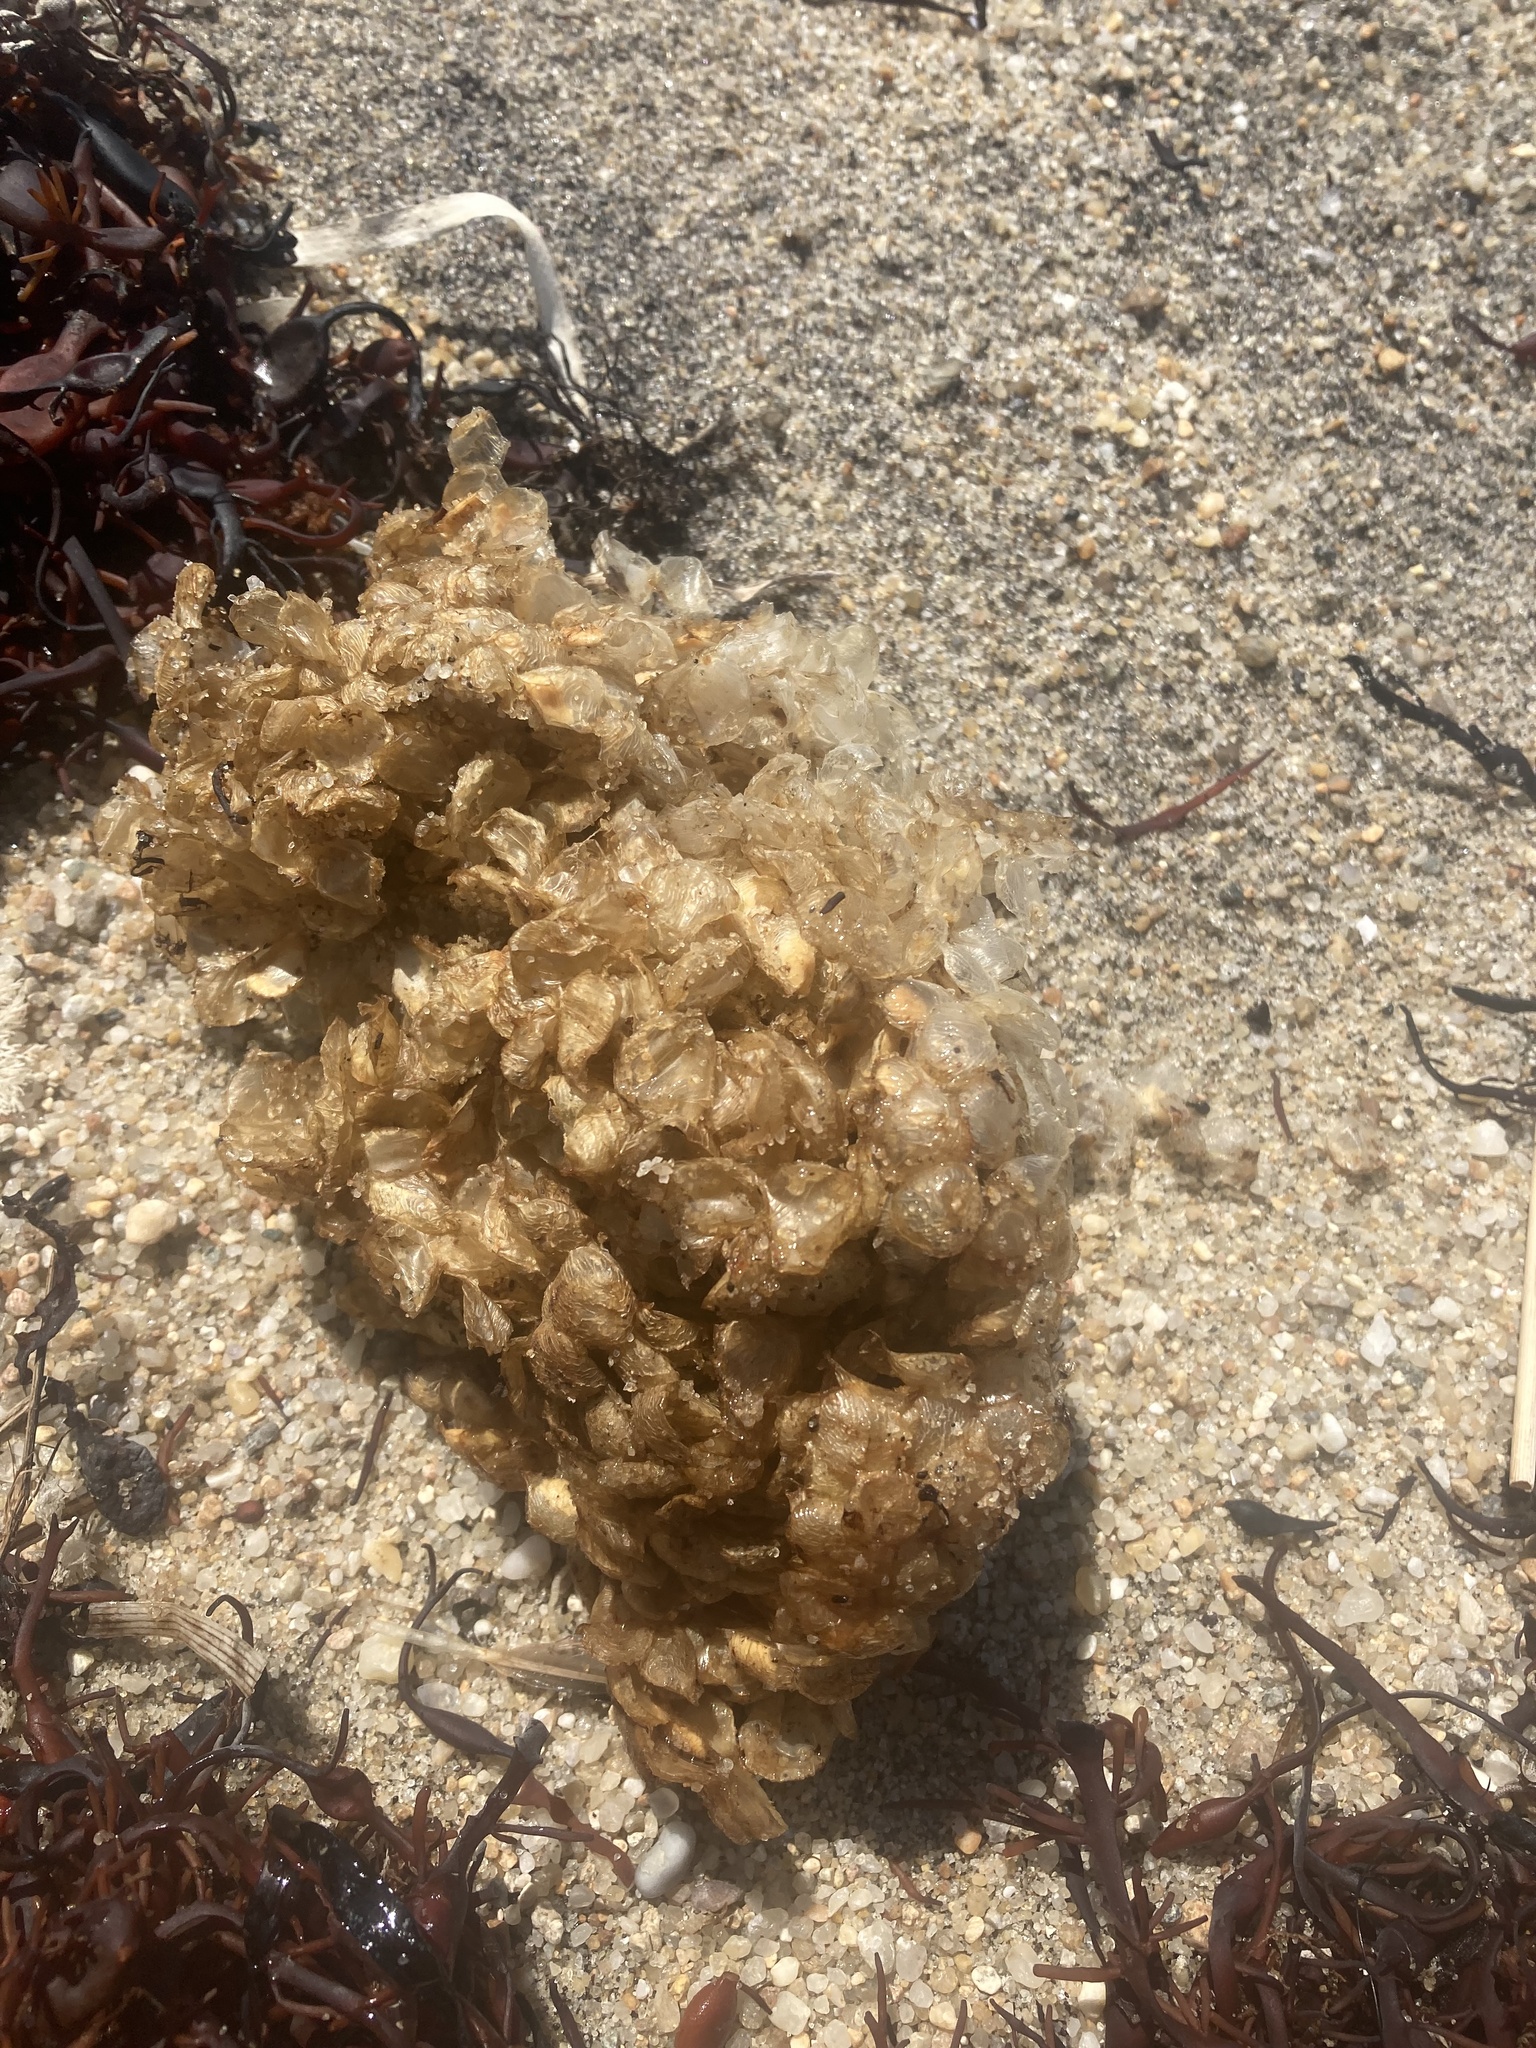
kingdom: Animalia
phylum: Mollusca
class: Gastropoda
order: Neogastropoda
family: Buccinidae
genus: Buccinum
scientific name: Buccinum undatum
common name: Common whelk
